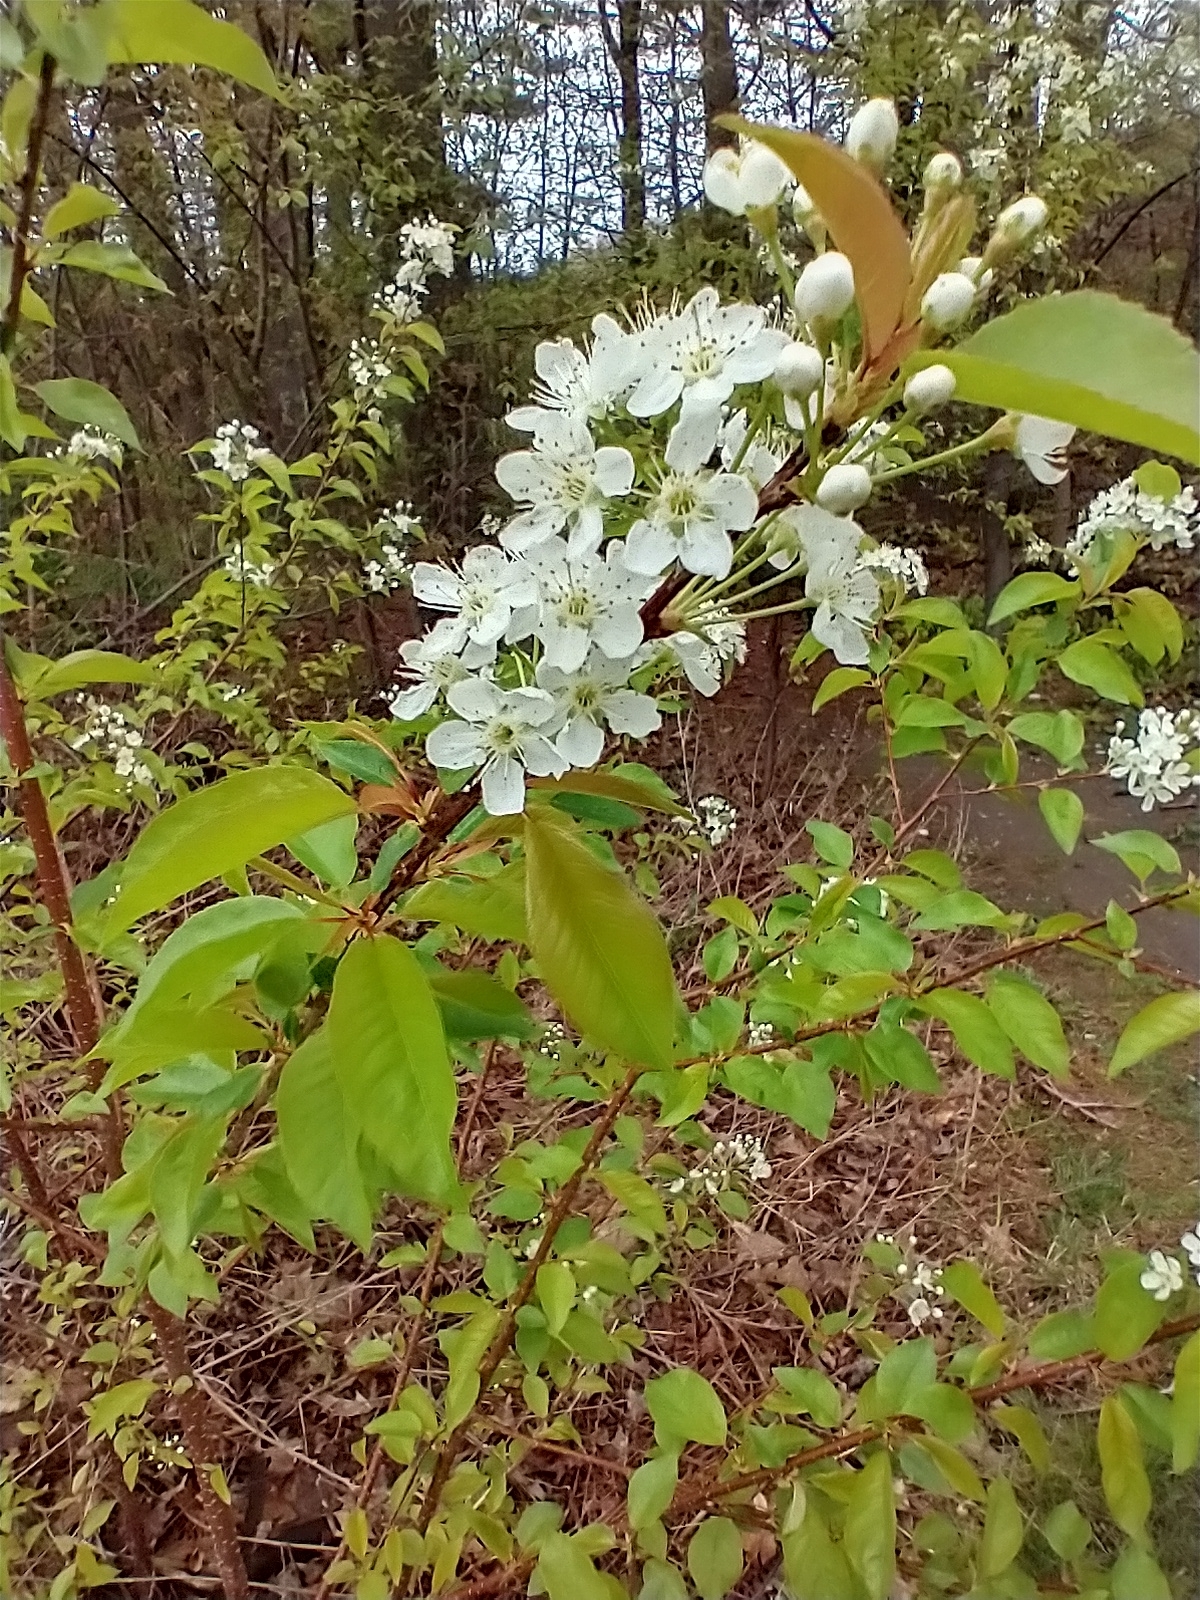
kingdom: Plantae
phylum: Tracheophyta
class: Magnoliopsida
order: Rosales
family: Rosaceae
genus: Prunus
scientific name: Prunus pensylvanica
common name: Pin cherry
